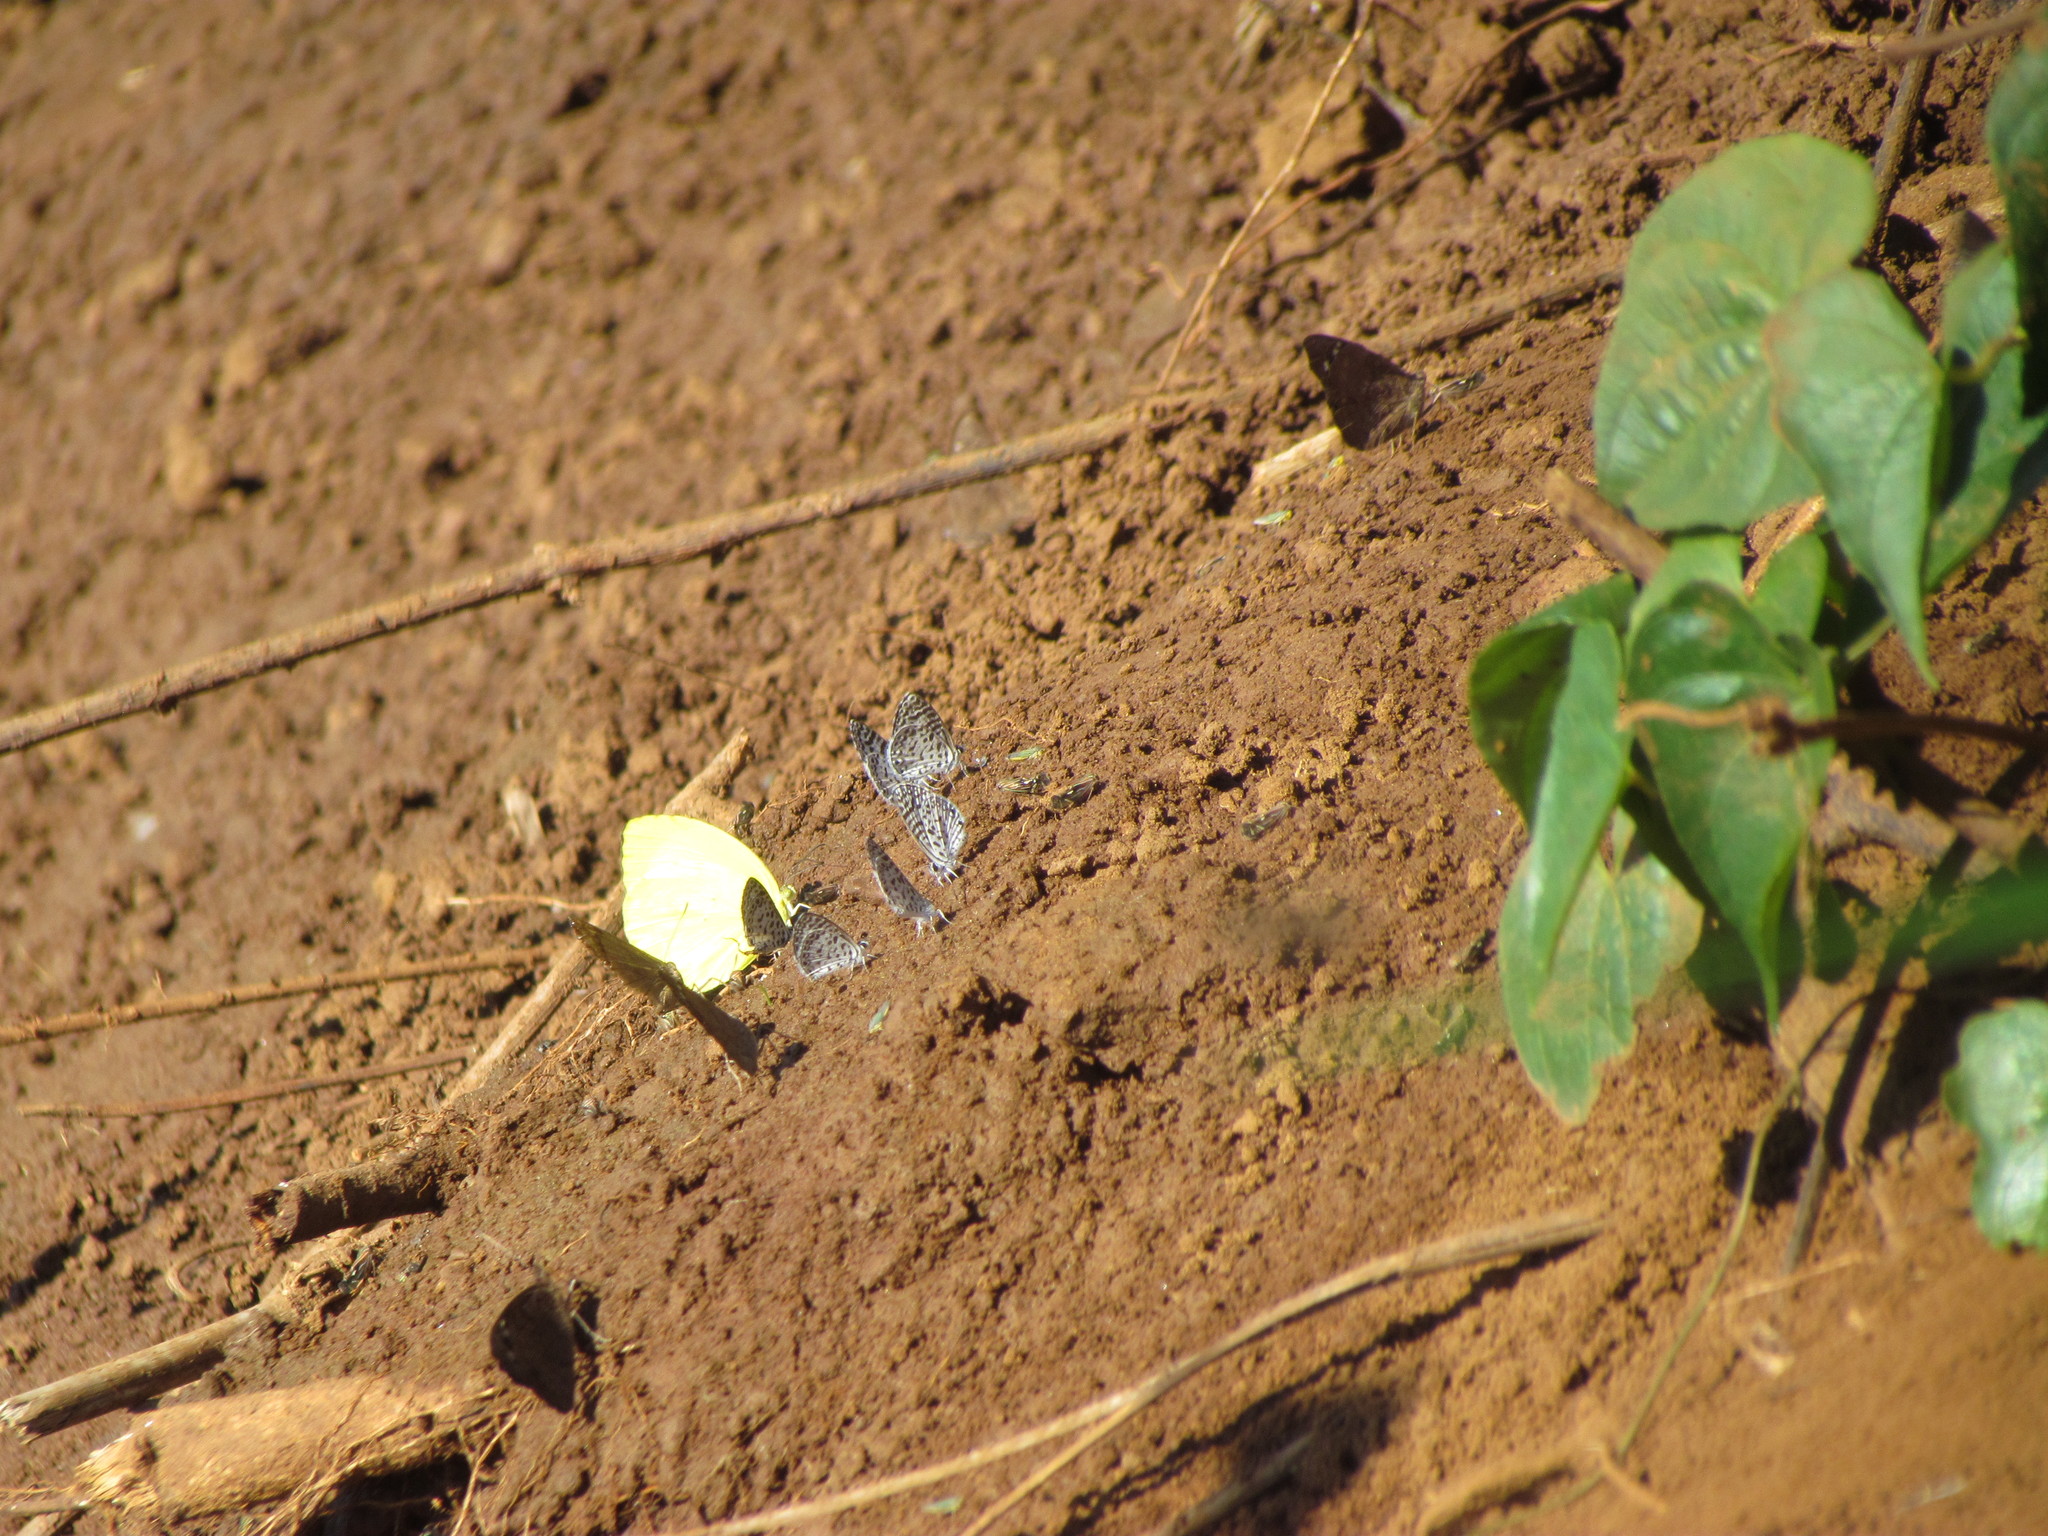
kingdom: Animalia
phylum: Arthropoda
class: Insecta
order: Lepidoptera
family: Lycaenidae
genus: Leptotes
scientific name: Leptotes cassius
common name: Cassius blue
